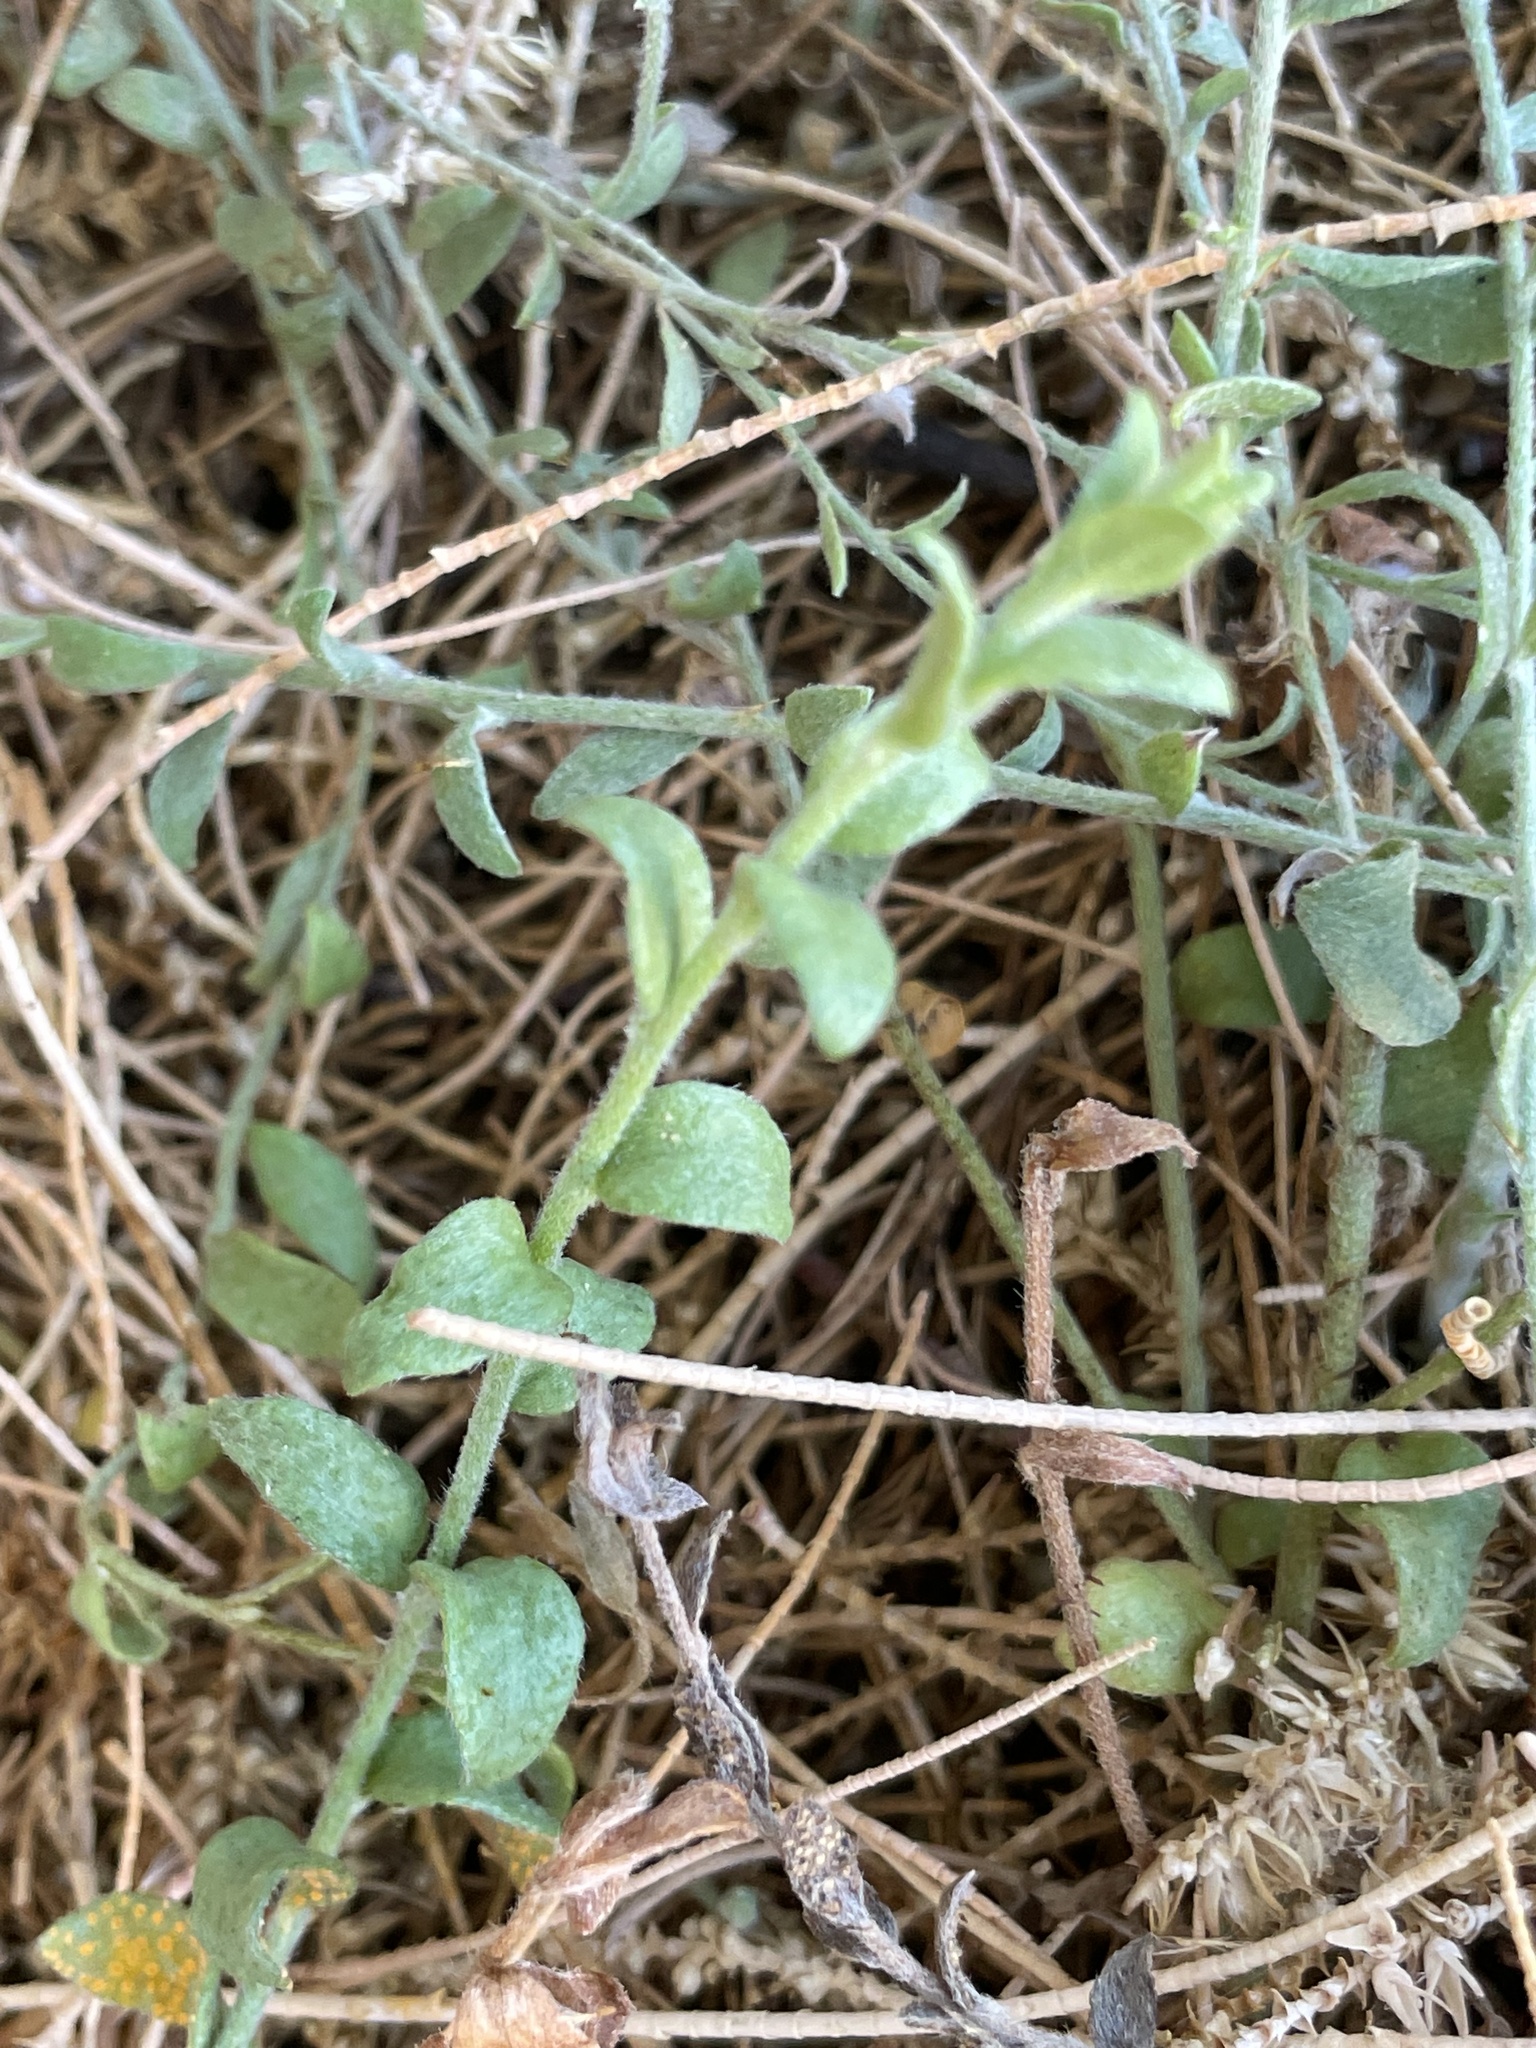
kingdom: Plantae
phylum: Tracheophyta
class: Magnoliopsida
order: Solanales
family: Convolvulaceae
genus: Cressa
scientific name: Cressa truxillensis
